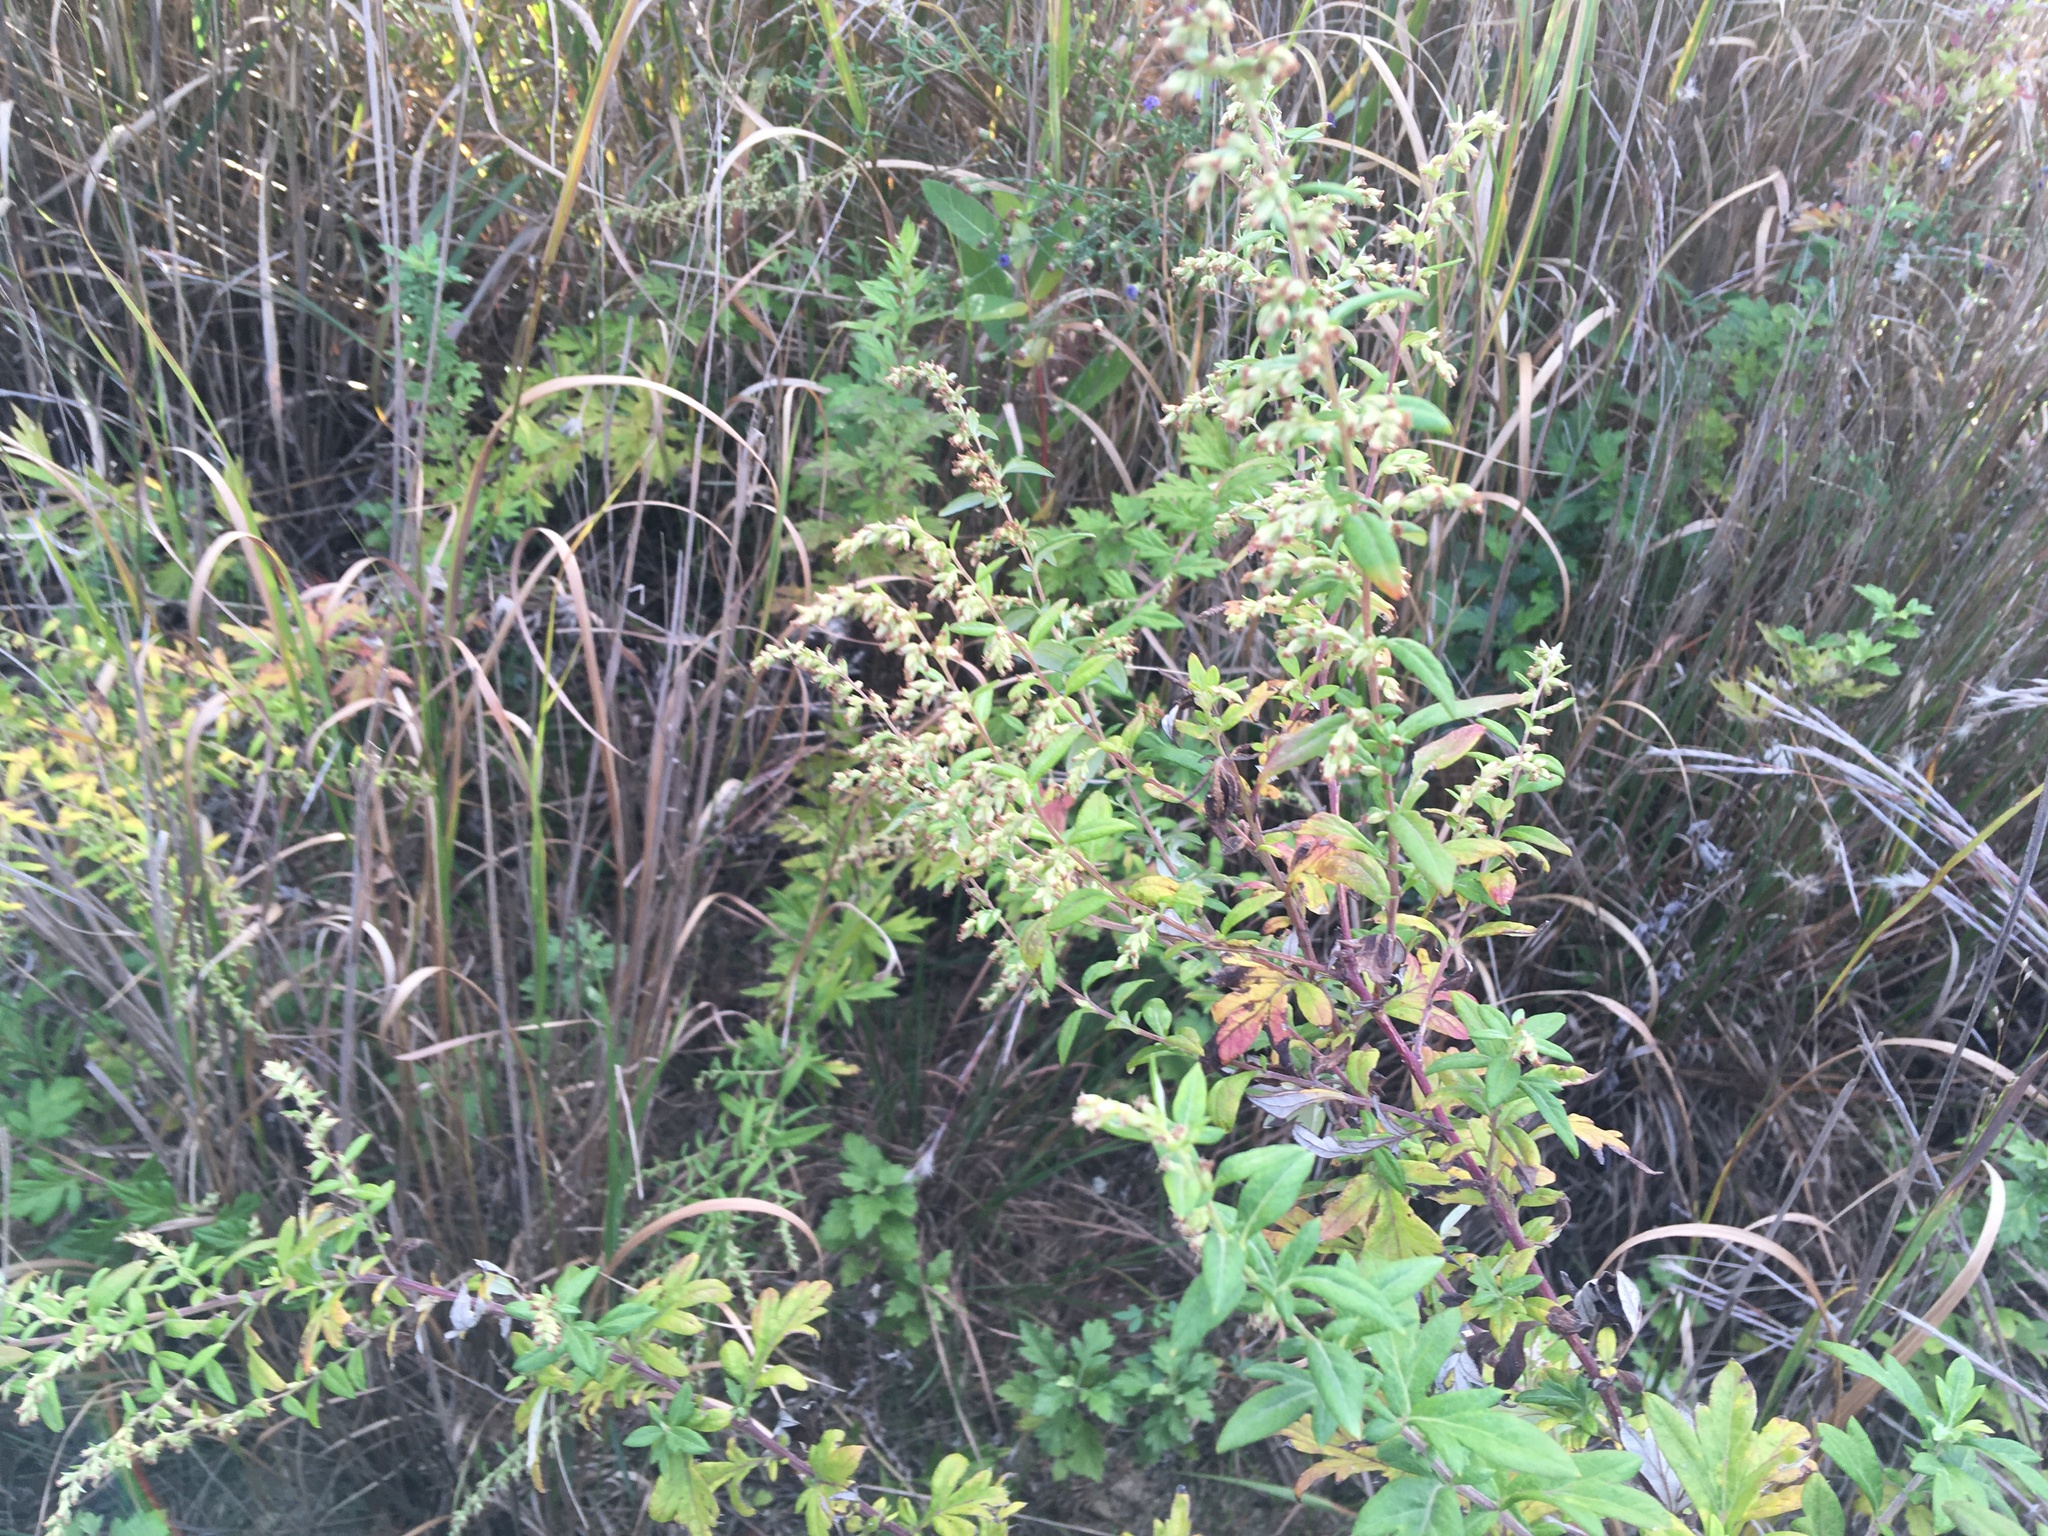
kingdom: Plantae
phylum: Tracheophyta
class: Magnoliopsida
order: Asterales
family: Asteraceae
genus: Artemisia
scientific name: Artemisia vulgaris
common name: Mugwort
